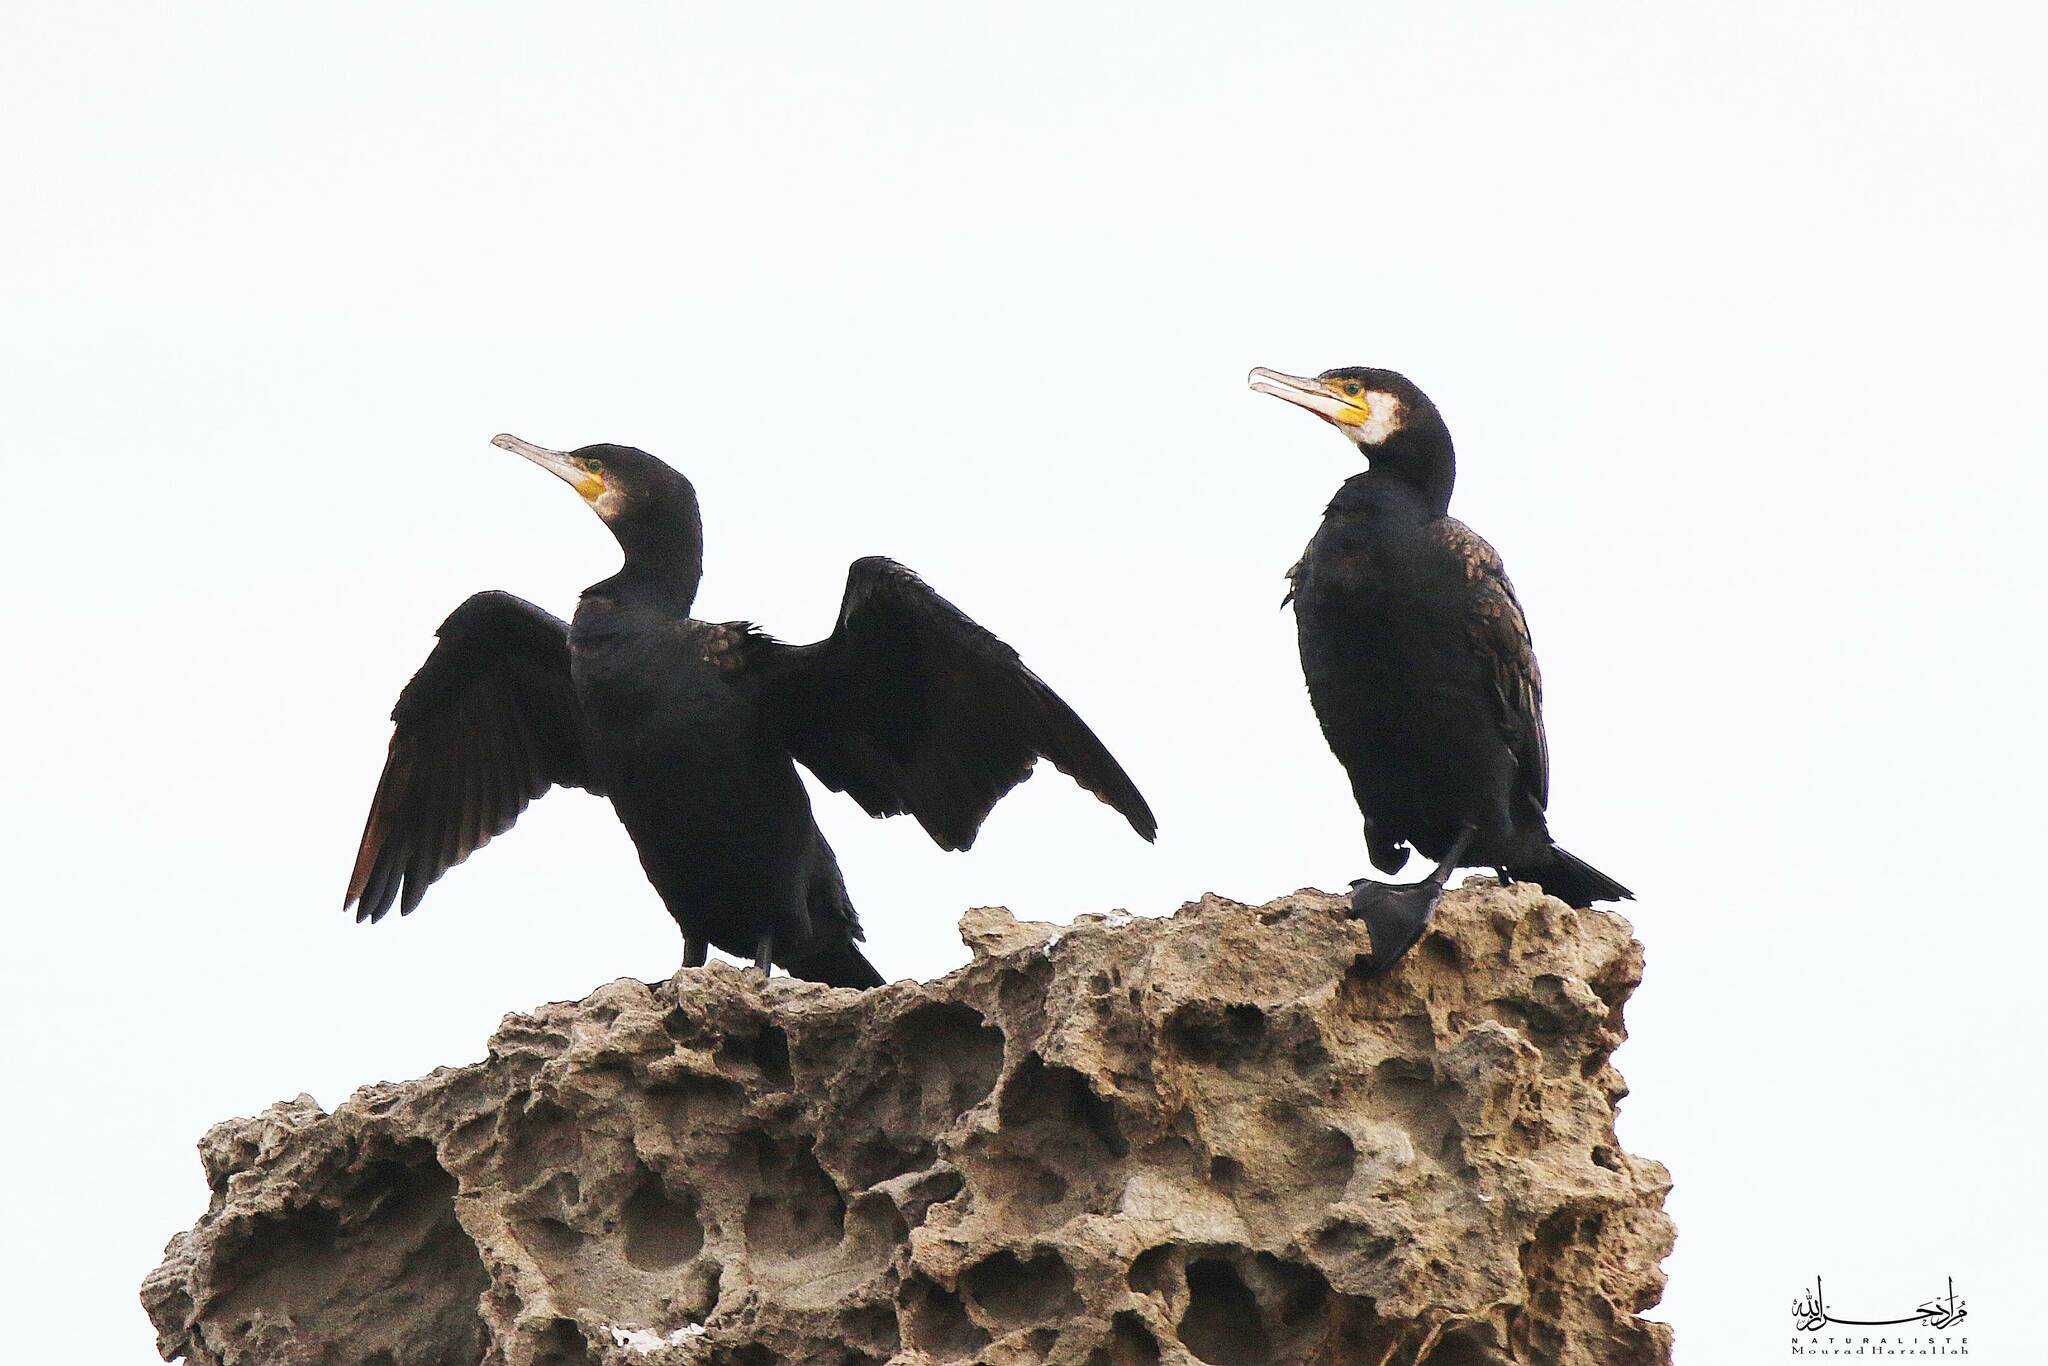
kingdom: Animalia
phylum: Chordata
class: Aves
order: Suliformes
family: Phalacrocoracidae
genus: Phalacrocorax
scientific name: Phalacrocorax carbo
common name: Great cormorant
